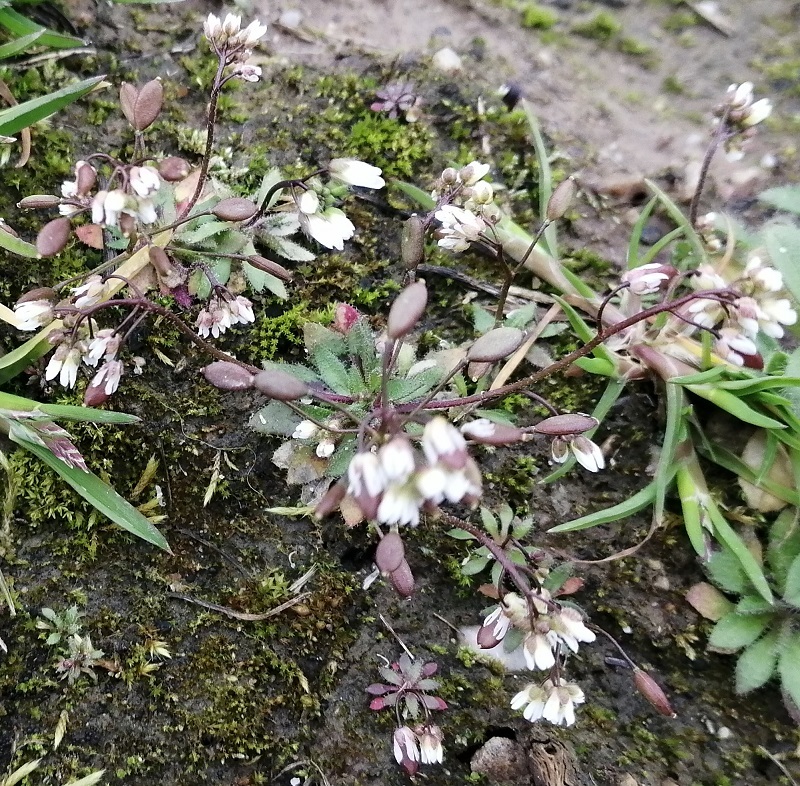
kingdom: Plantae
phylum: Tracheophyta
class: Magnoliopsida
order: Brassicales
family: Brassicaceae
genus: Draba
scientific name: Draba verna
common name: Spring draba
